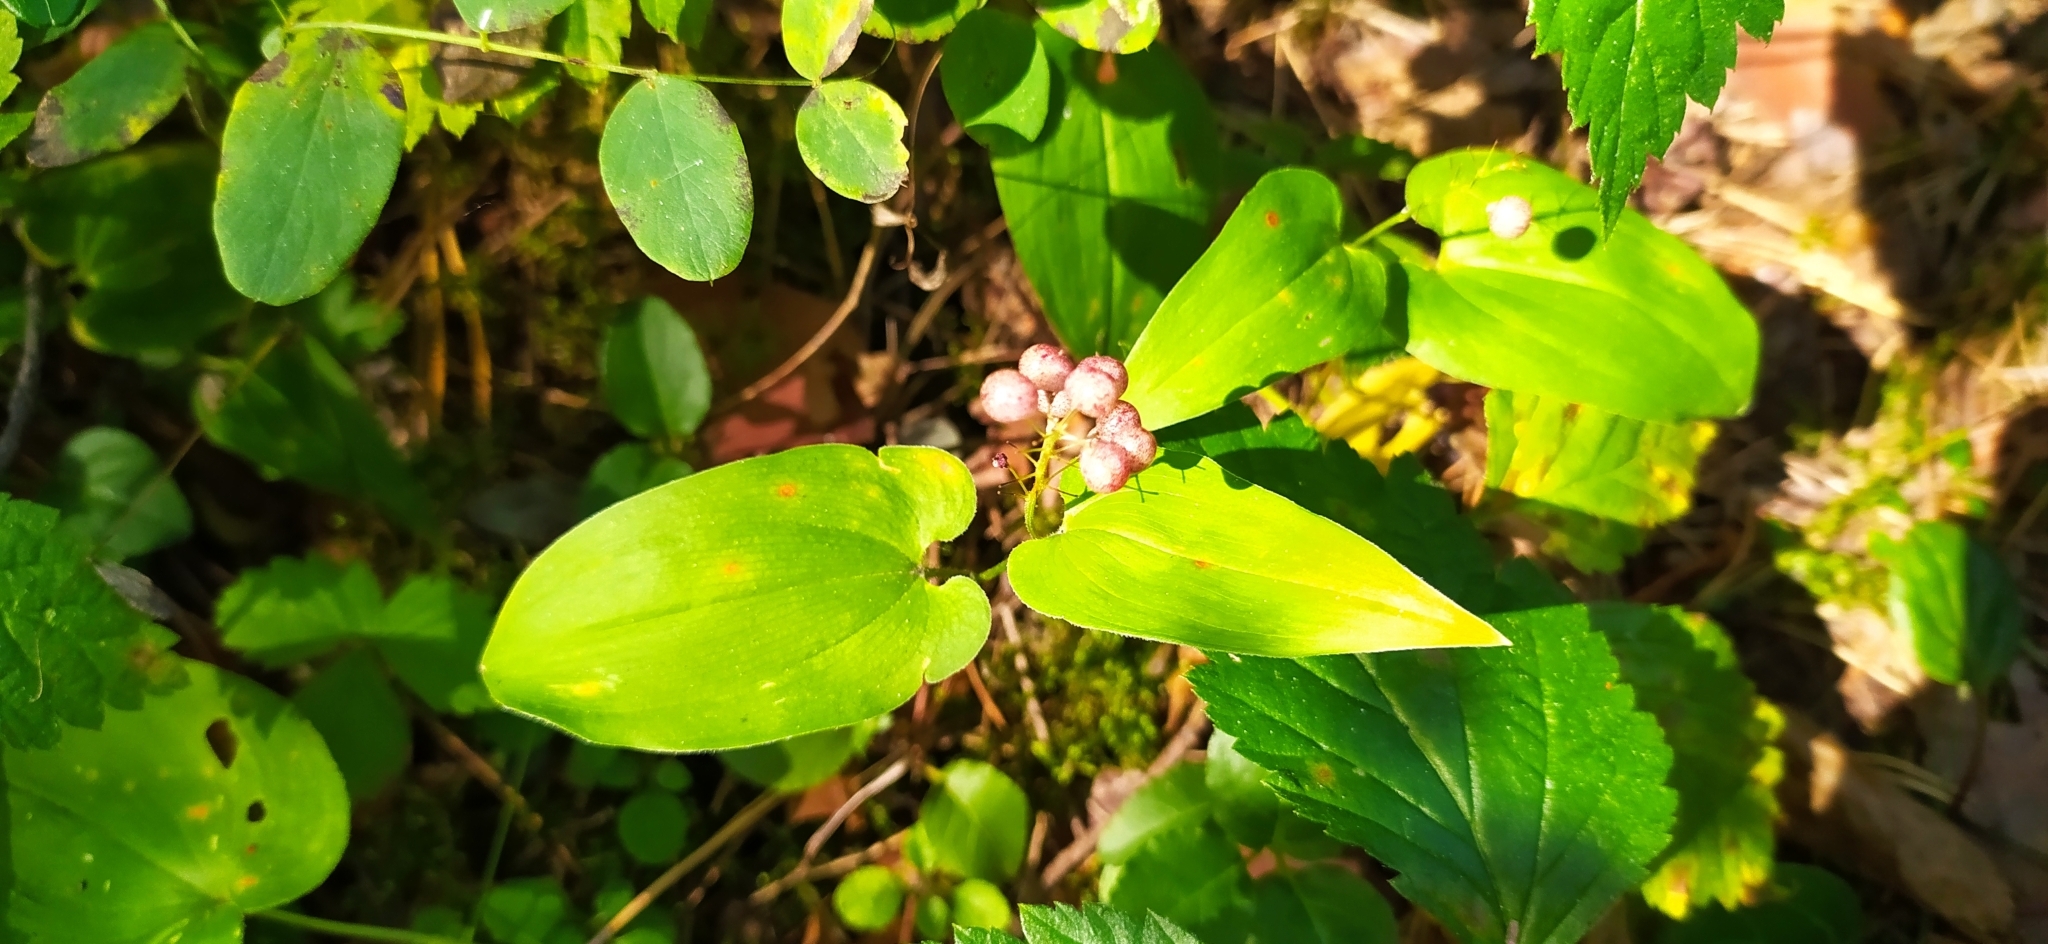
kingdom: Plantae
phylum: Tracheophyta
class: Liliopsida
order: Asparagales
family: Asparagaceae
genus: Maianthemum
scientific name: Maianthemum bifolium
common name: May lily
